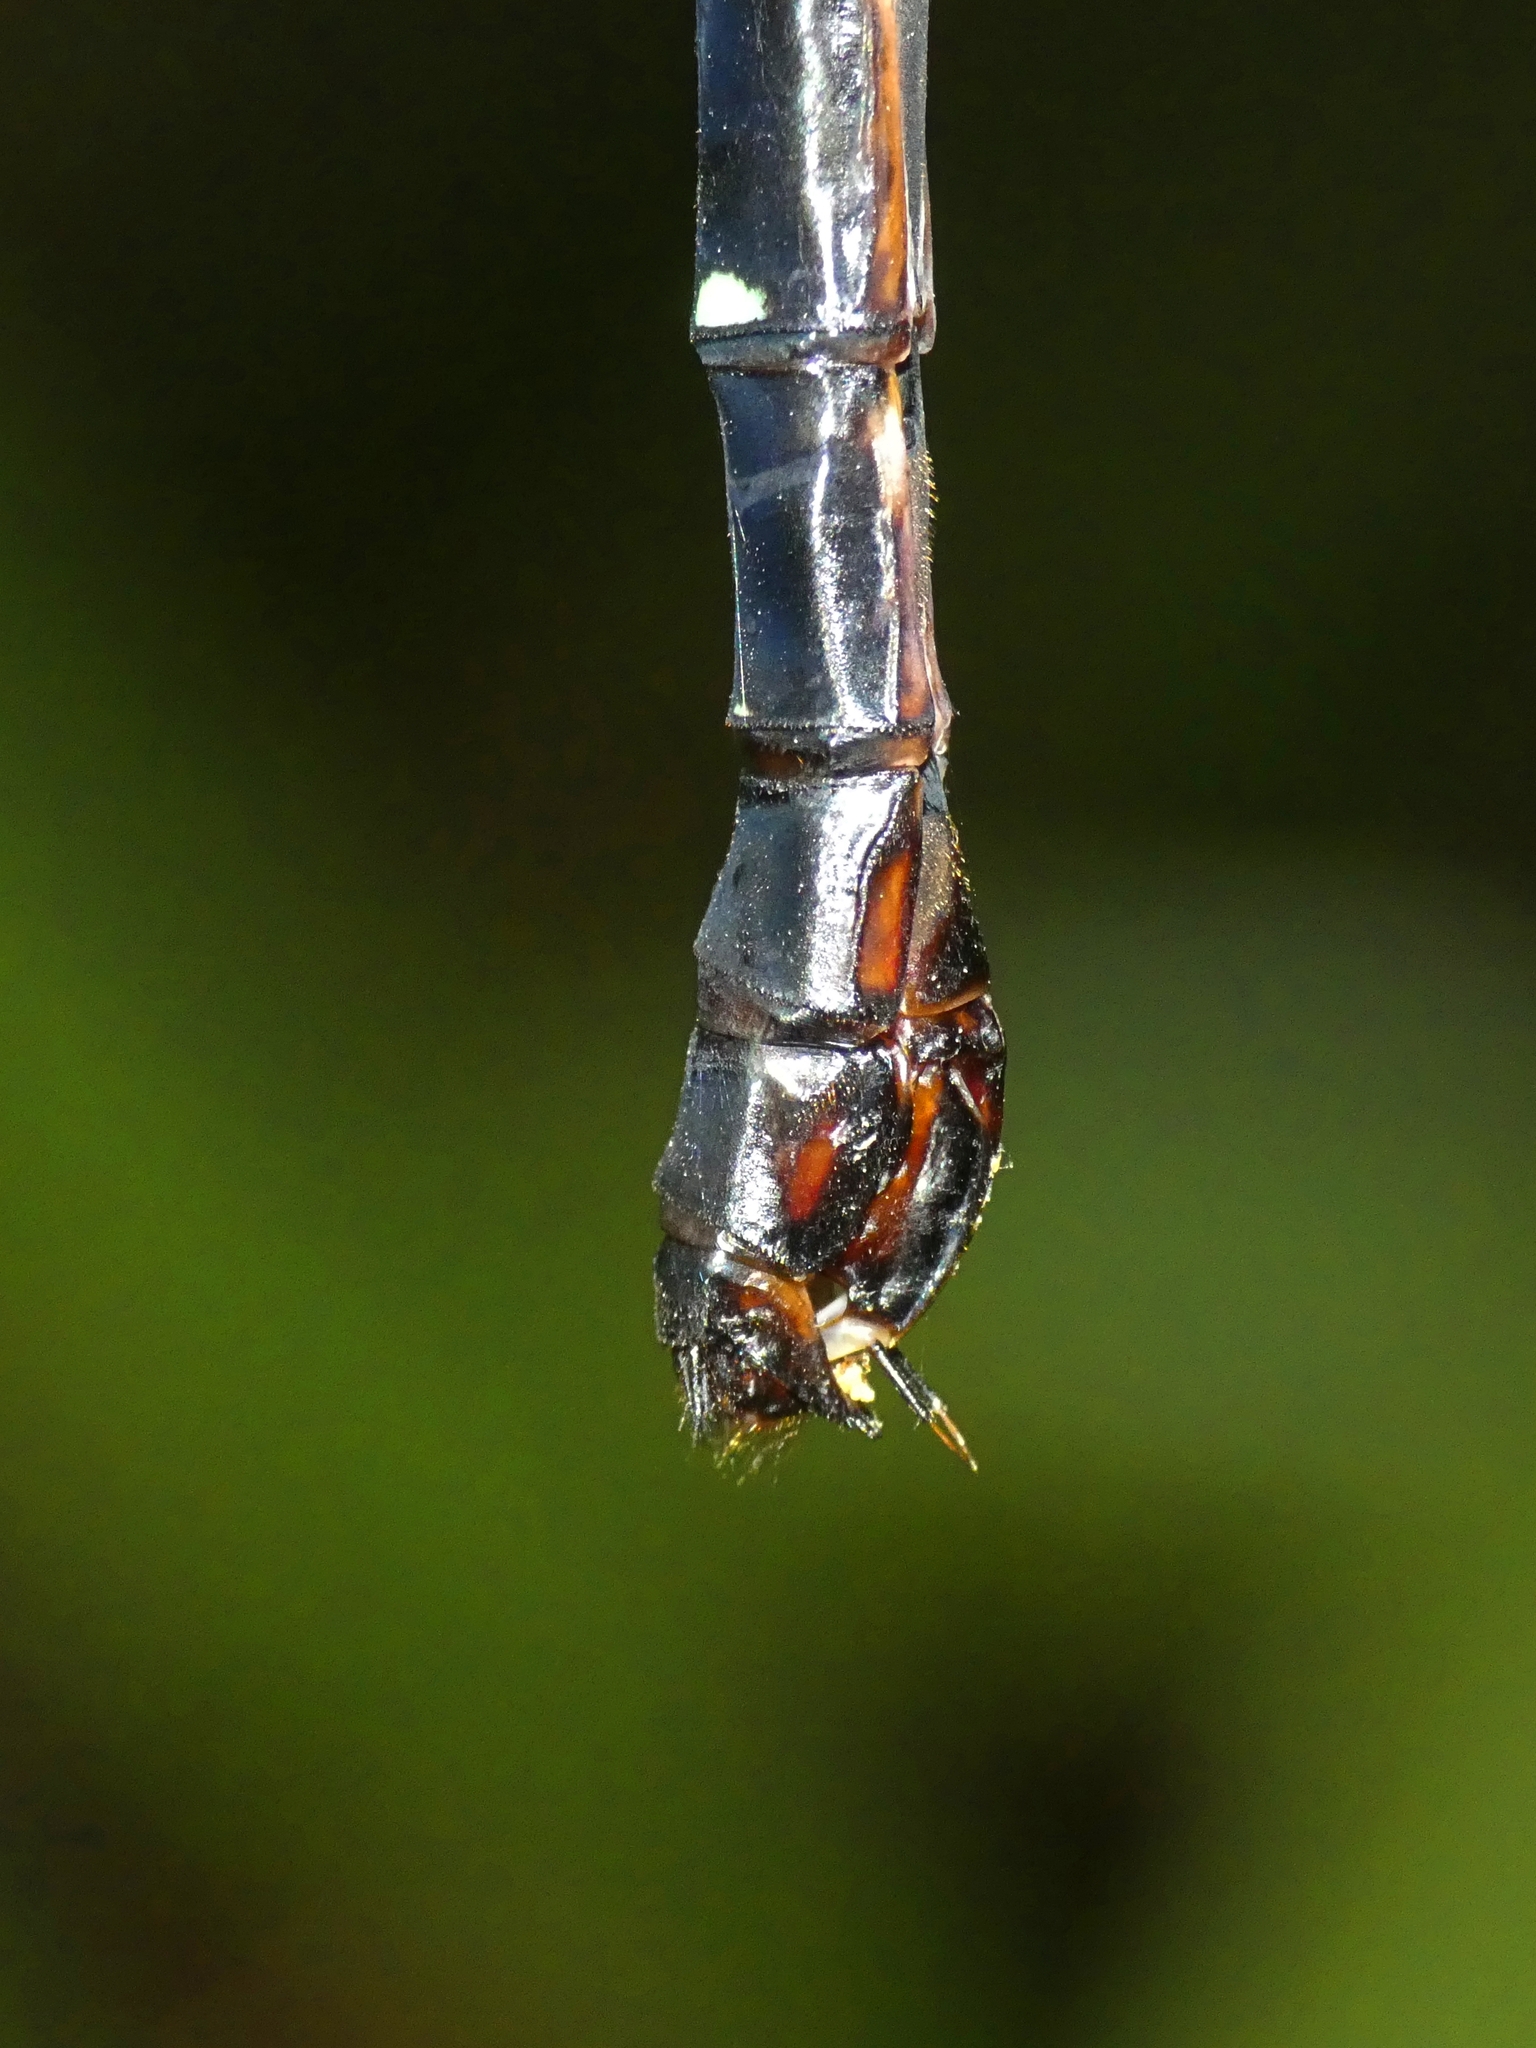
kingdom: Animalia
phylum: Arthropoda
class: Insecta
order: Odonata
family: Aeshnidae
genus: Dromaeschna
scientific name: Dromaeschna forcipata
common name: Green-striped darner
